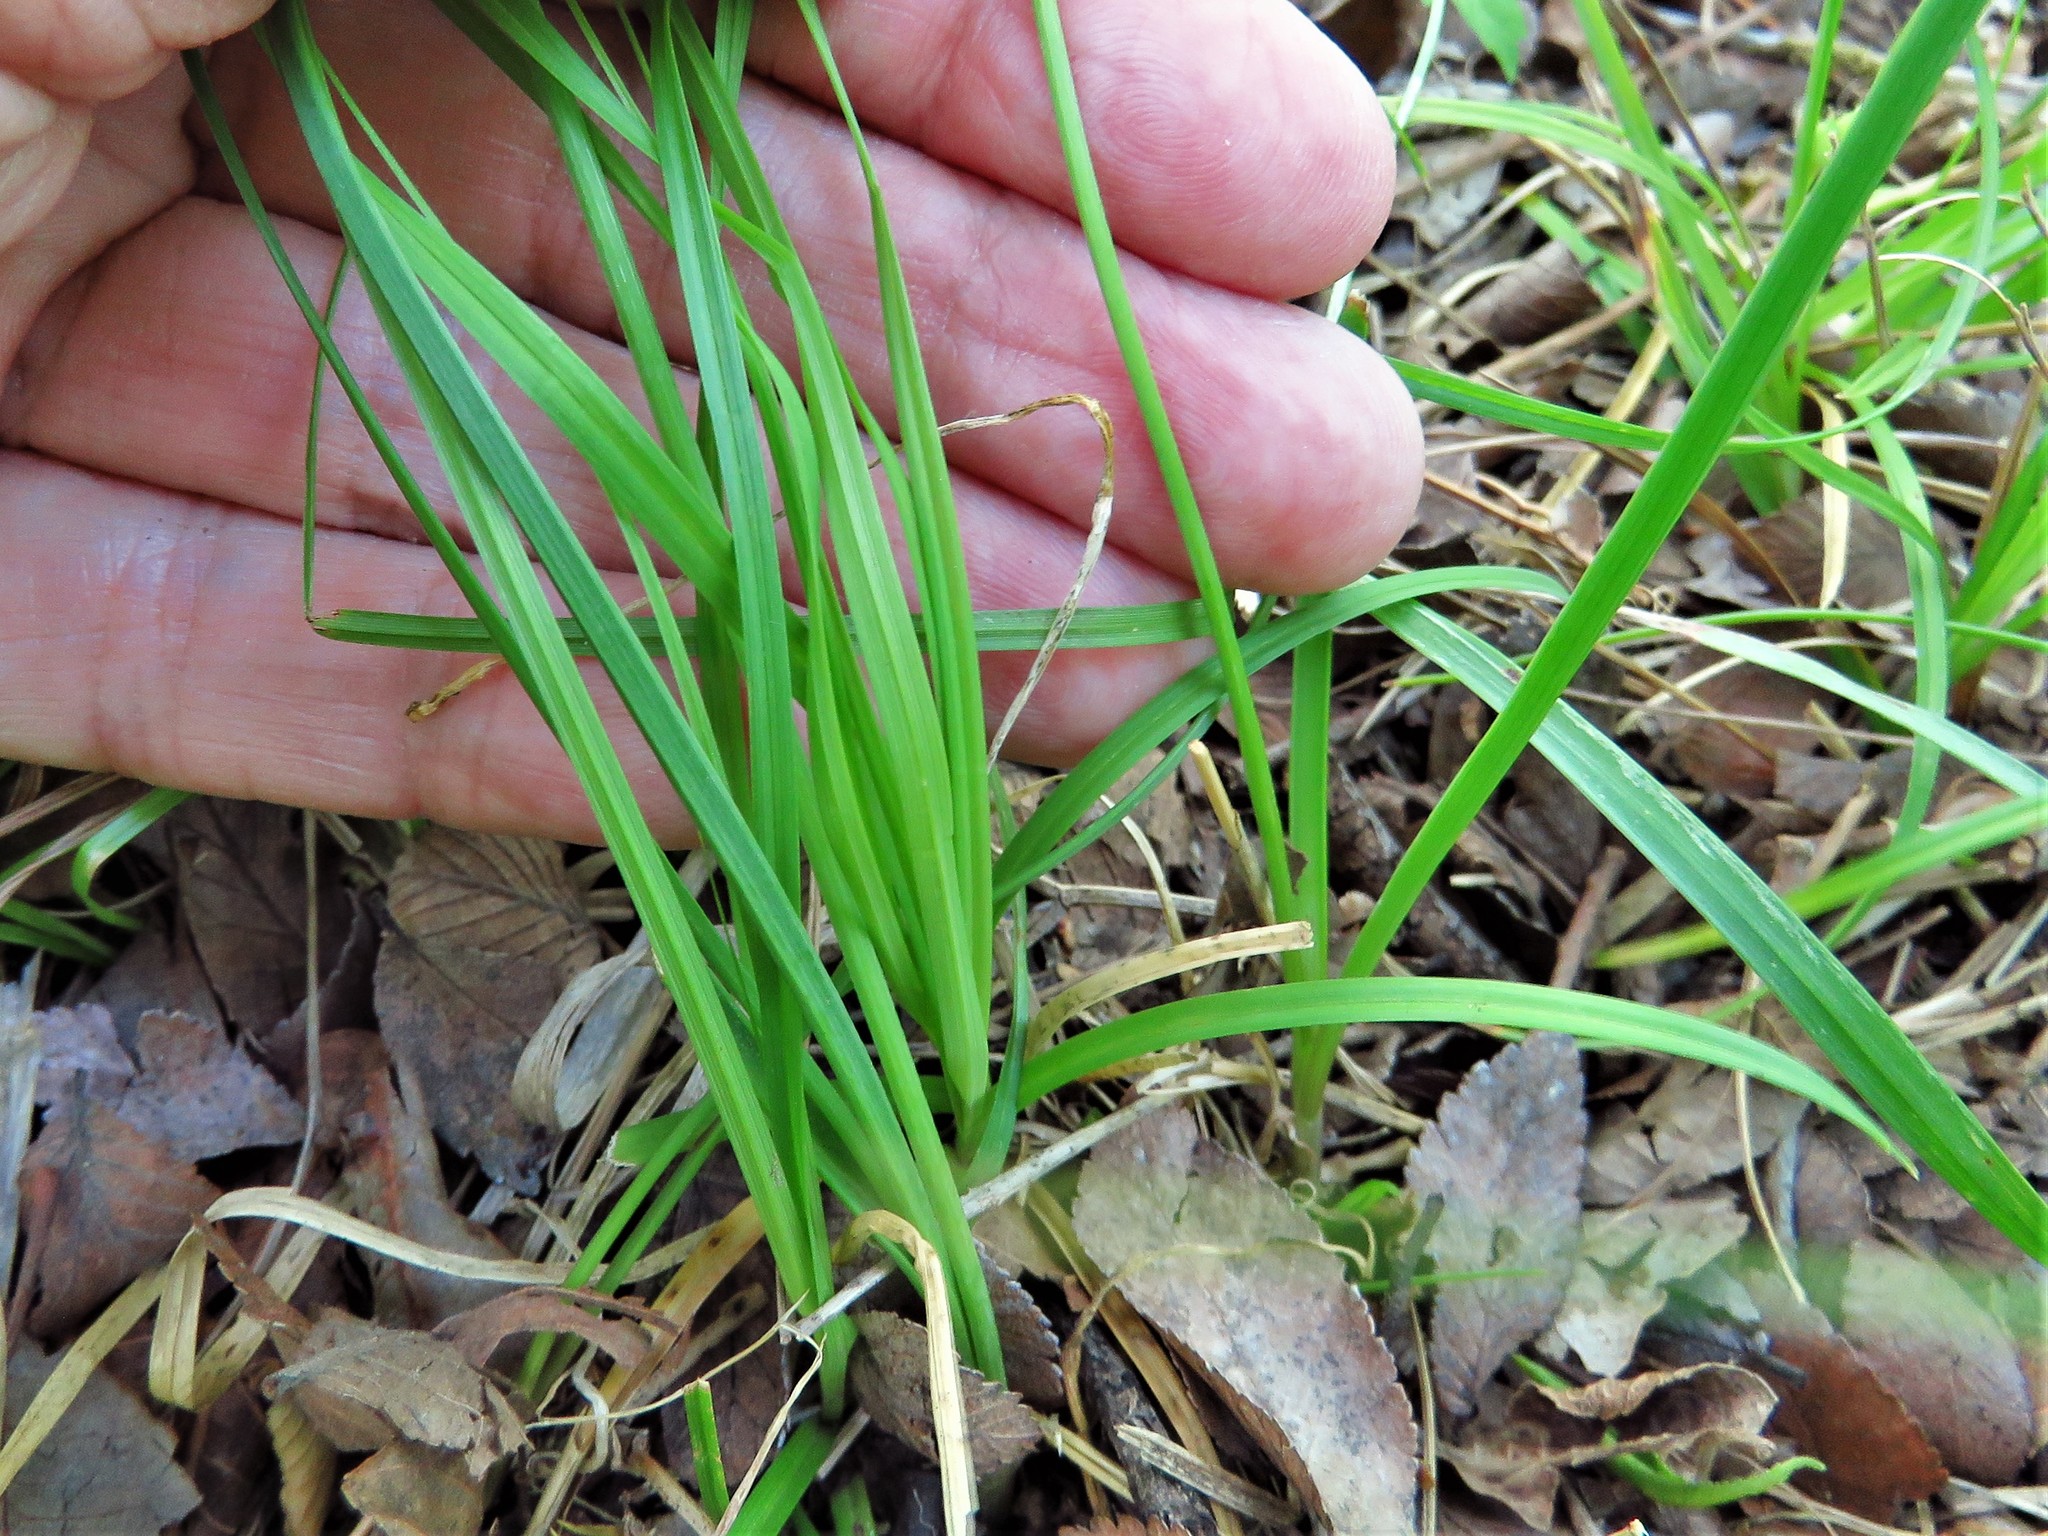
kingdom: Plantae
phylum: Tracheophyta
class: Liliopsida
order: Asparagales
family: Amaryllidaceae
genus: Allium
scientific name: Allium drummondii
